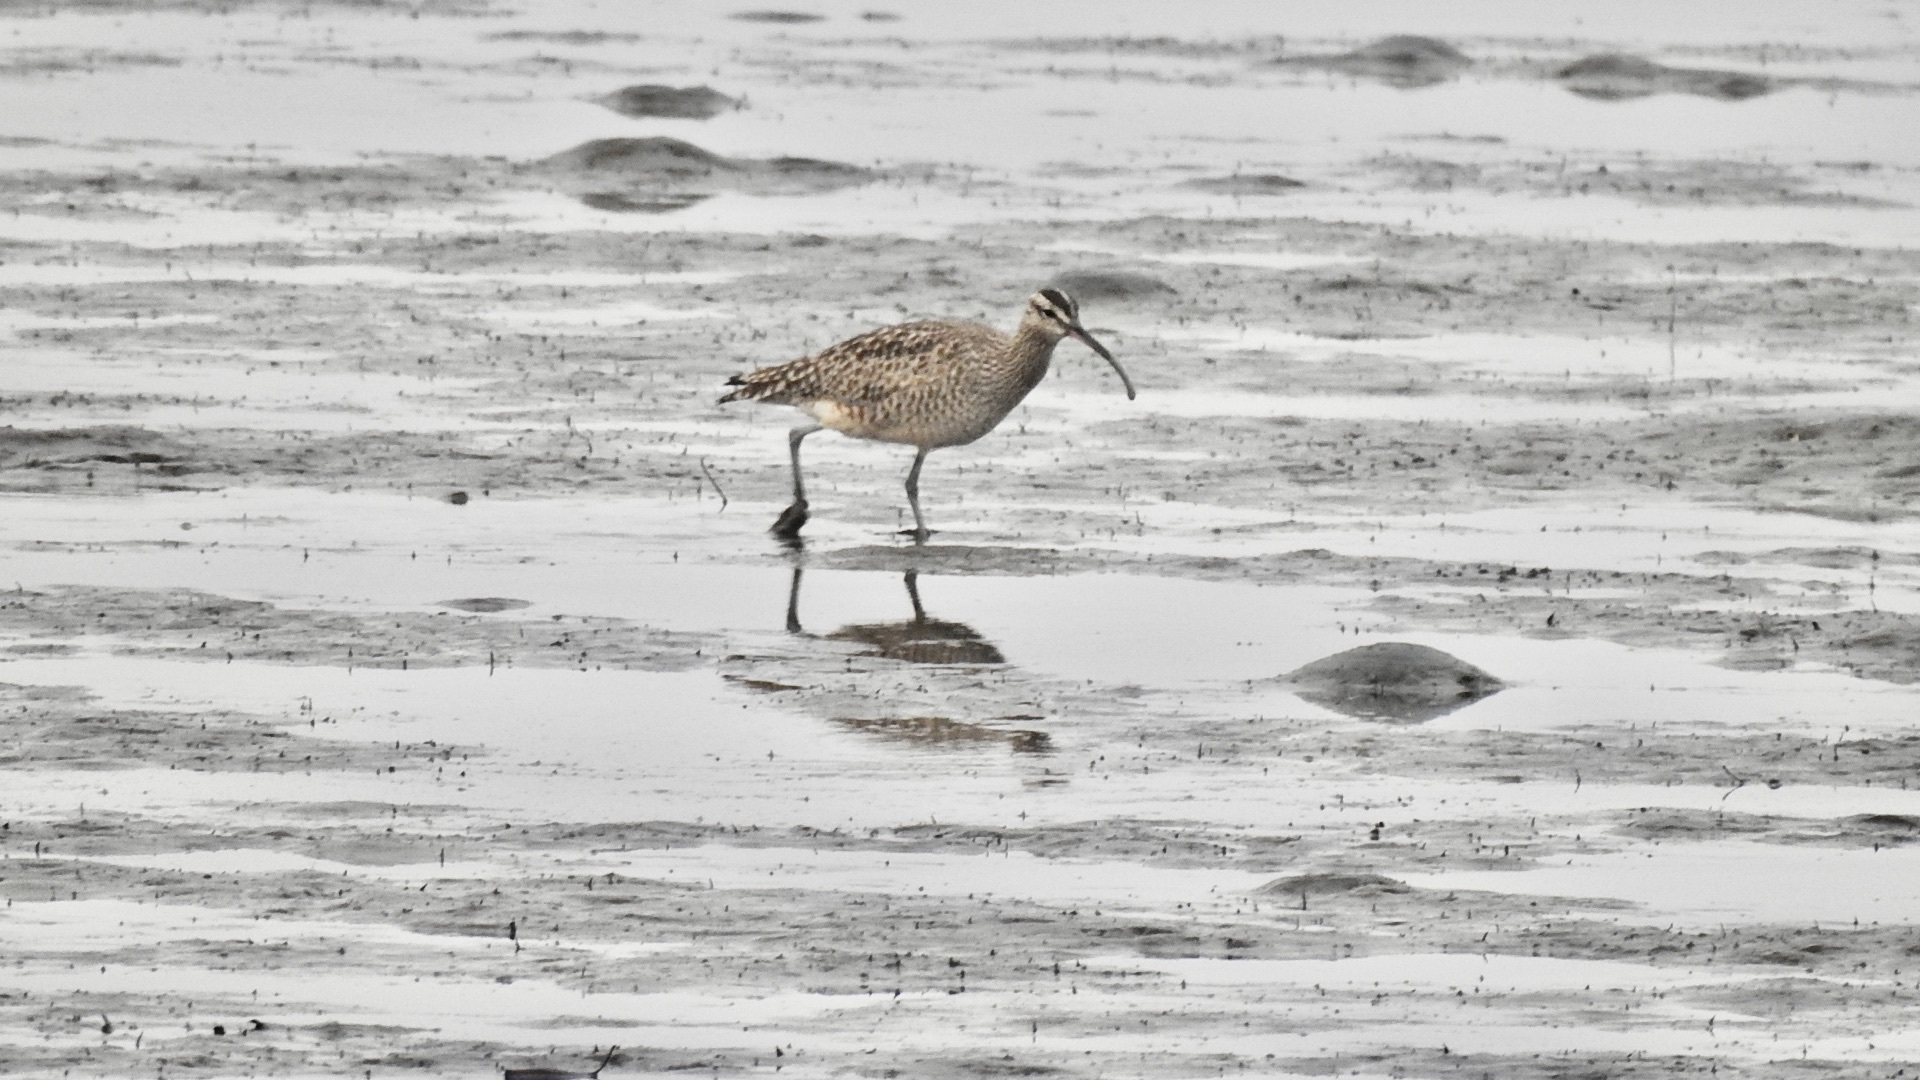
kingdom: Animalia
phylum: Chordata
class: Aves
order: Charadriiformes
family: Scolopacidae
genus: Numenius
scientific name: Numenius phaeopus
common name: Whimbrel
